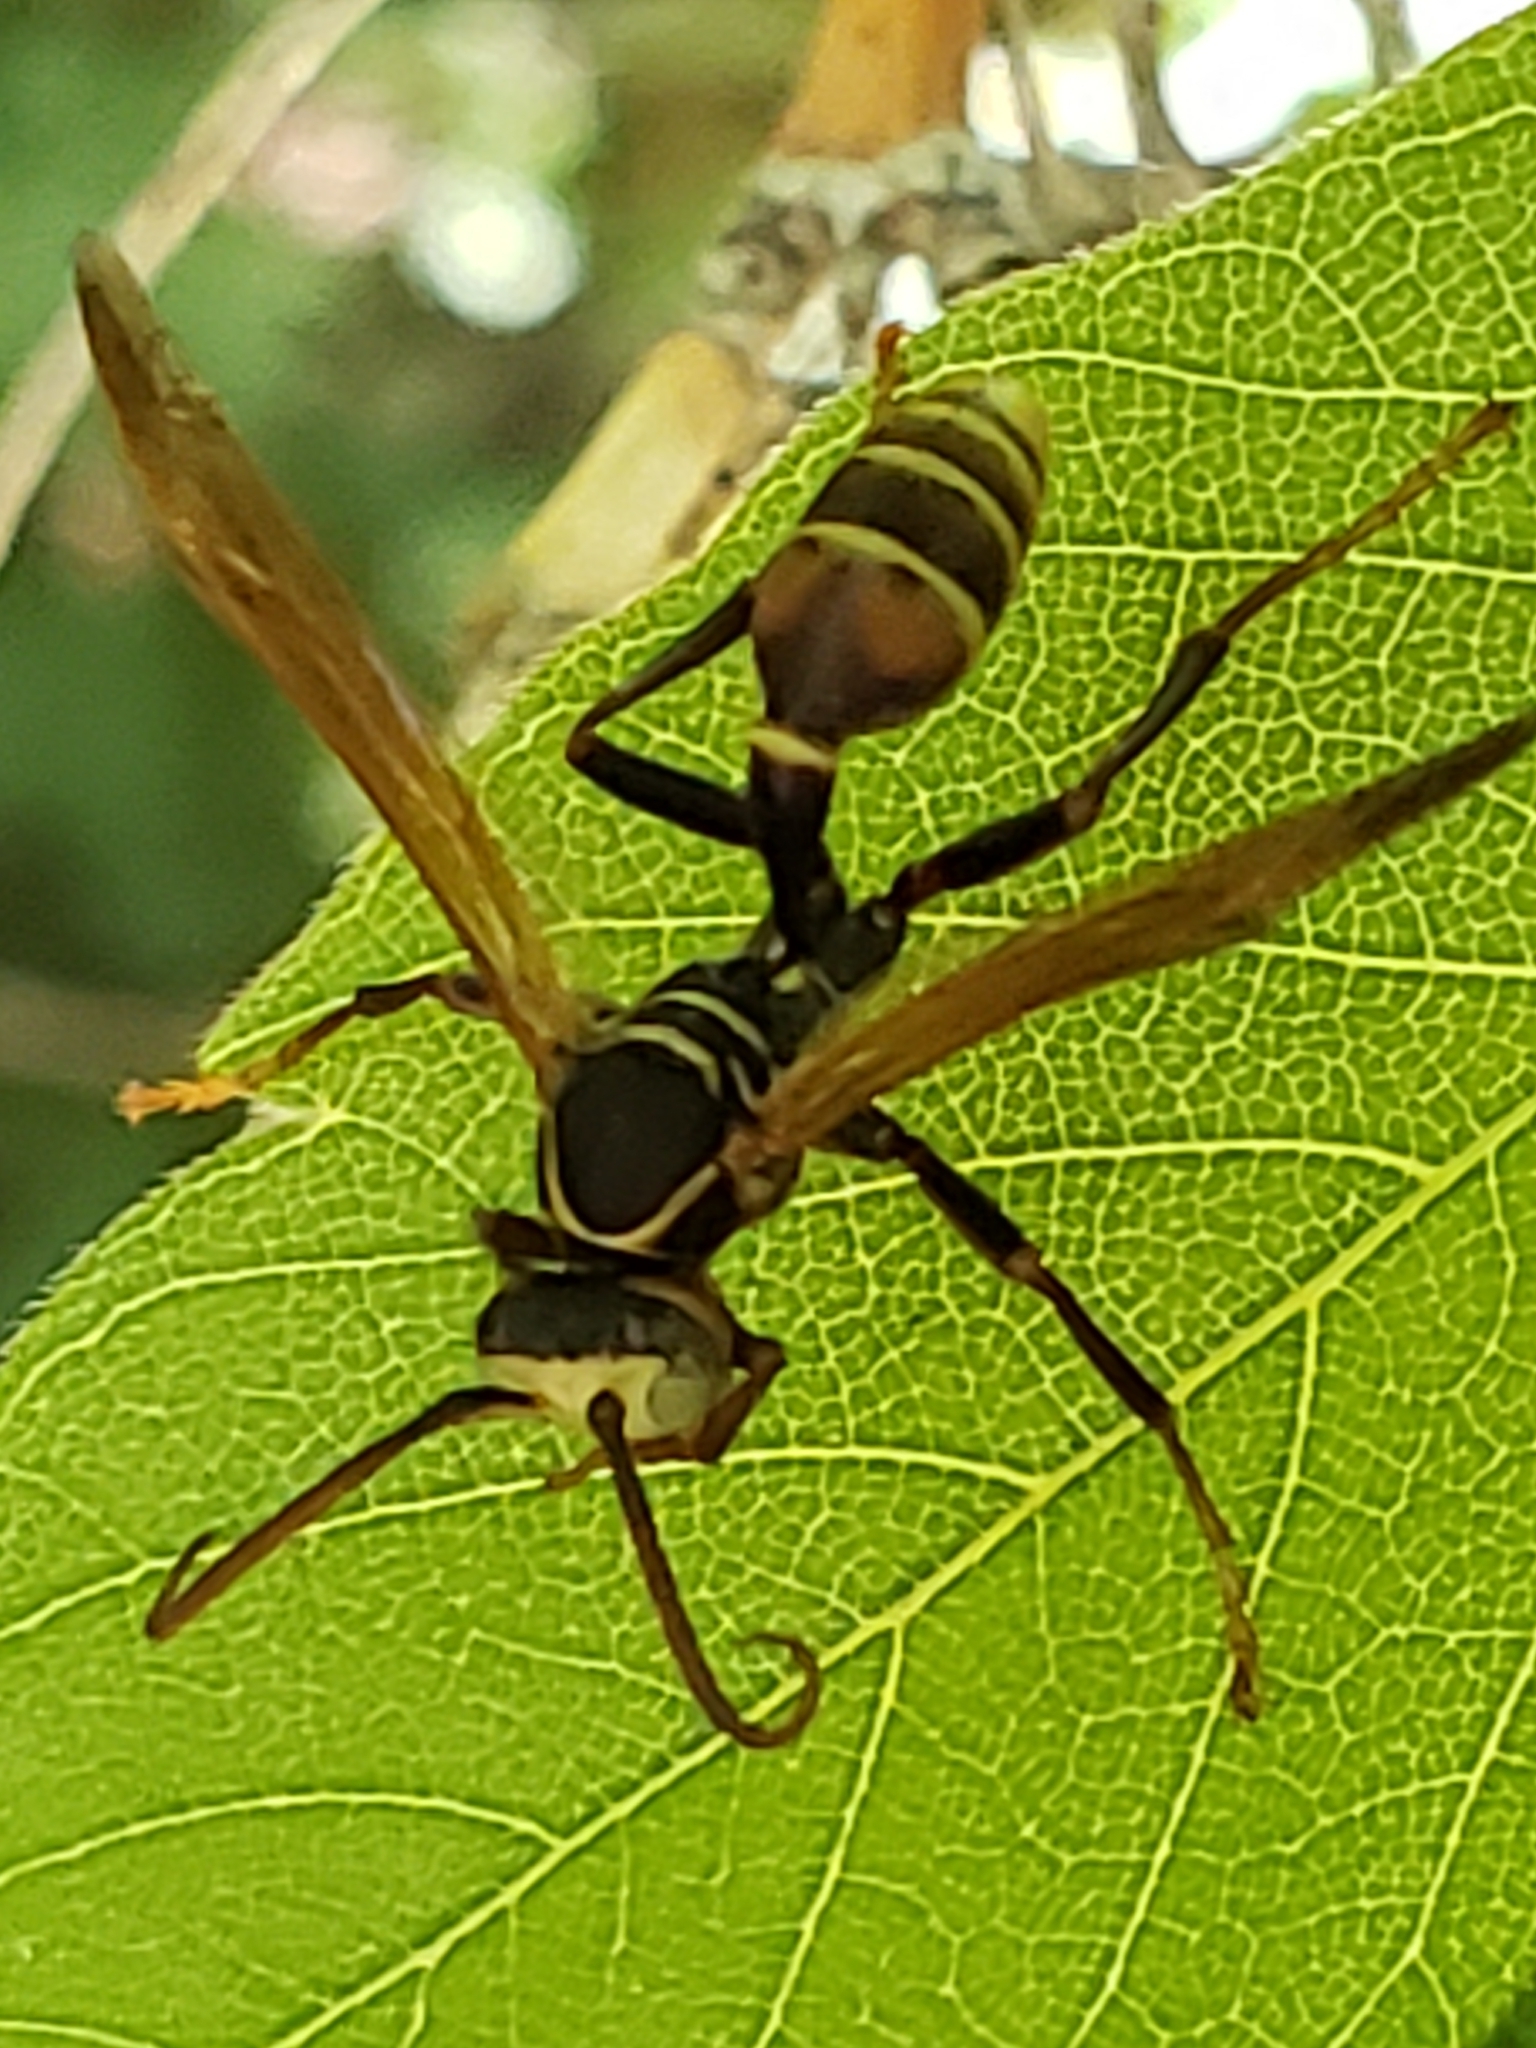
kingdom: Animalia
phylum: Arthropoda
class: Insecta
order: Hymenoptera
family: Vespidae
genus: Mischocyttarus
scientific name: Mischocyttarus flavitarsis
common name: Wasp
